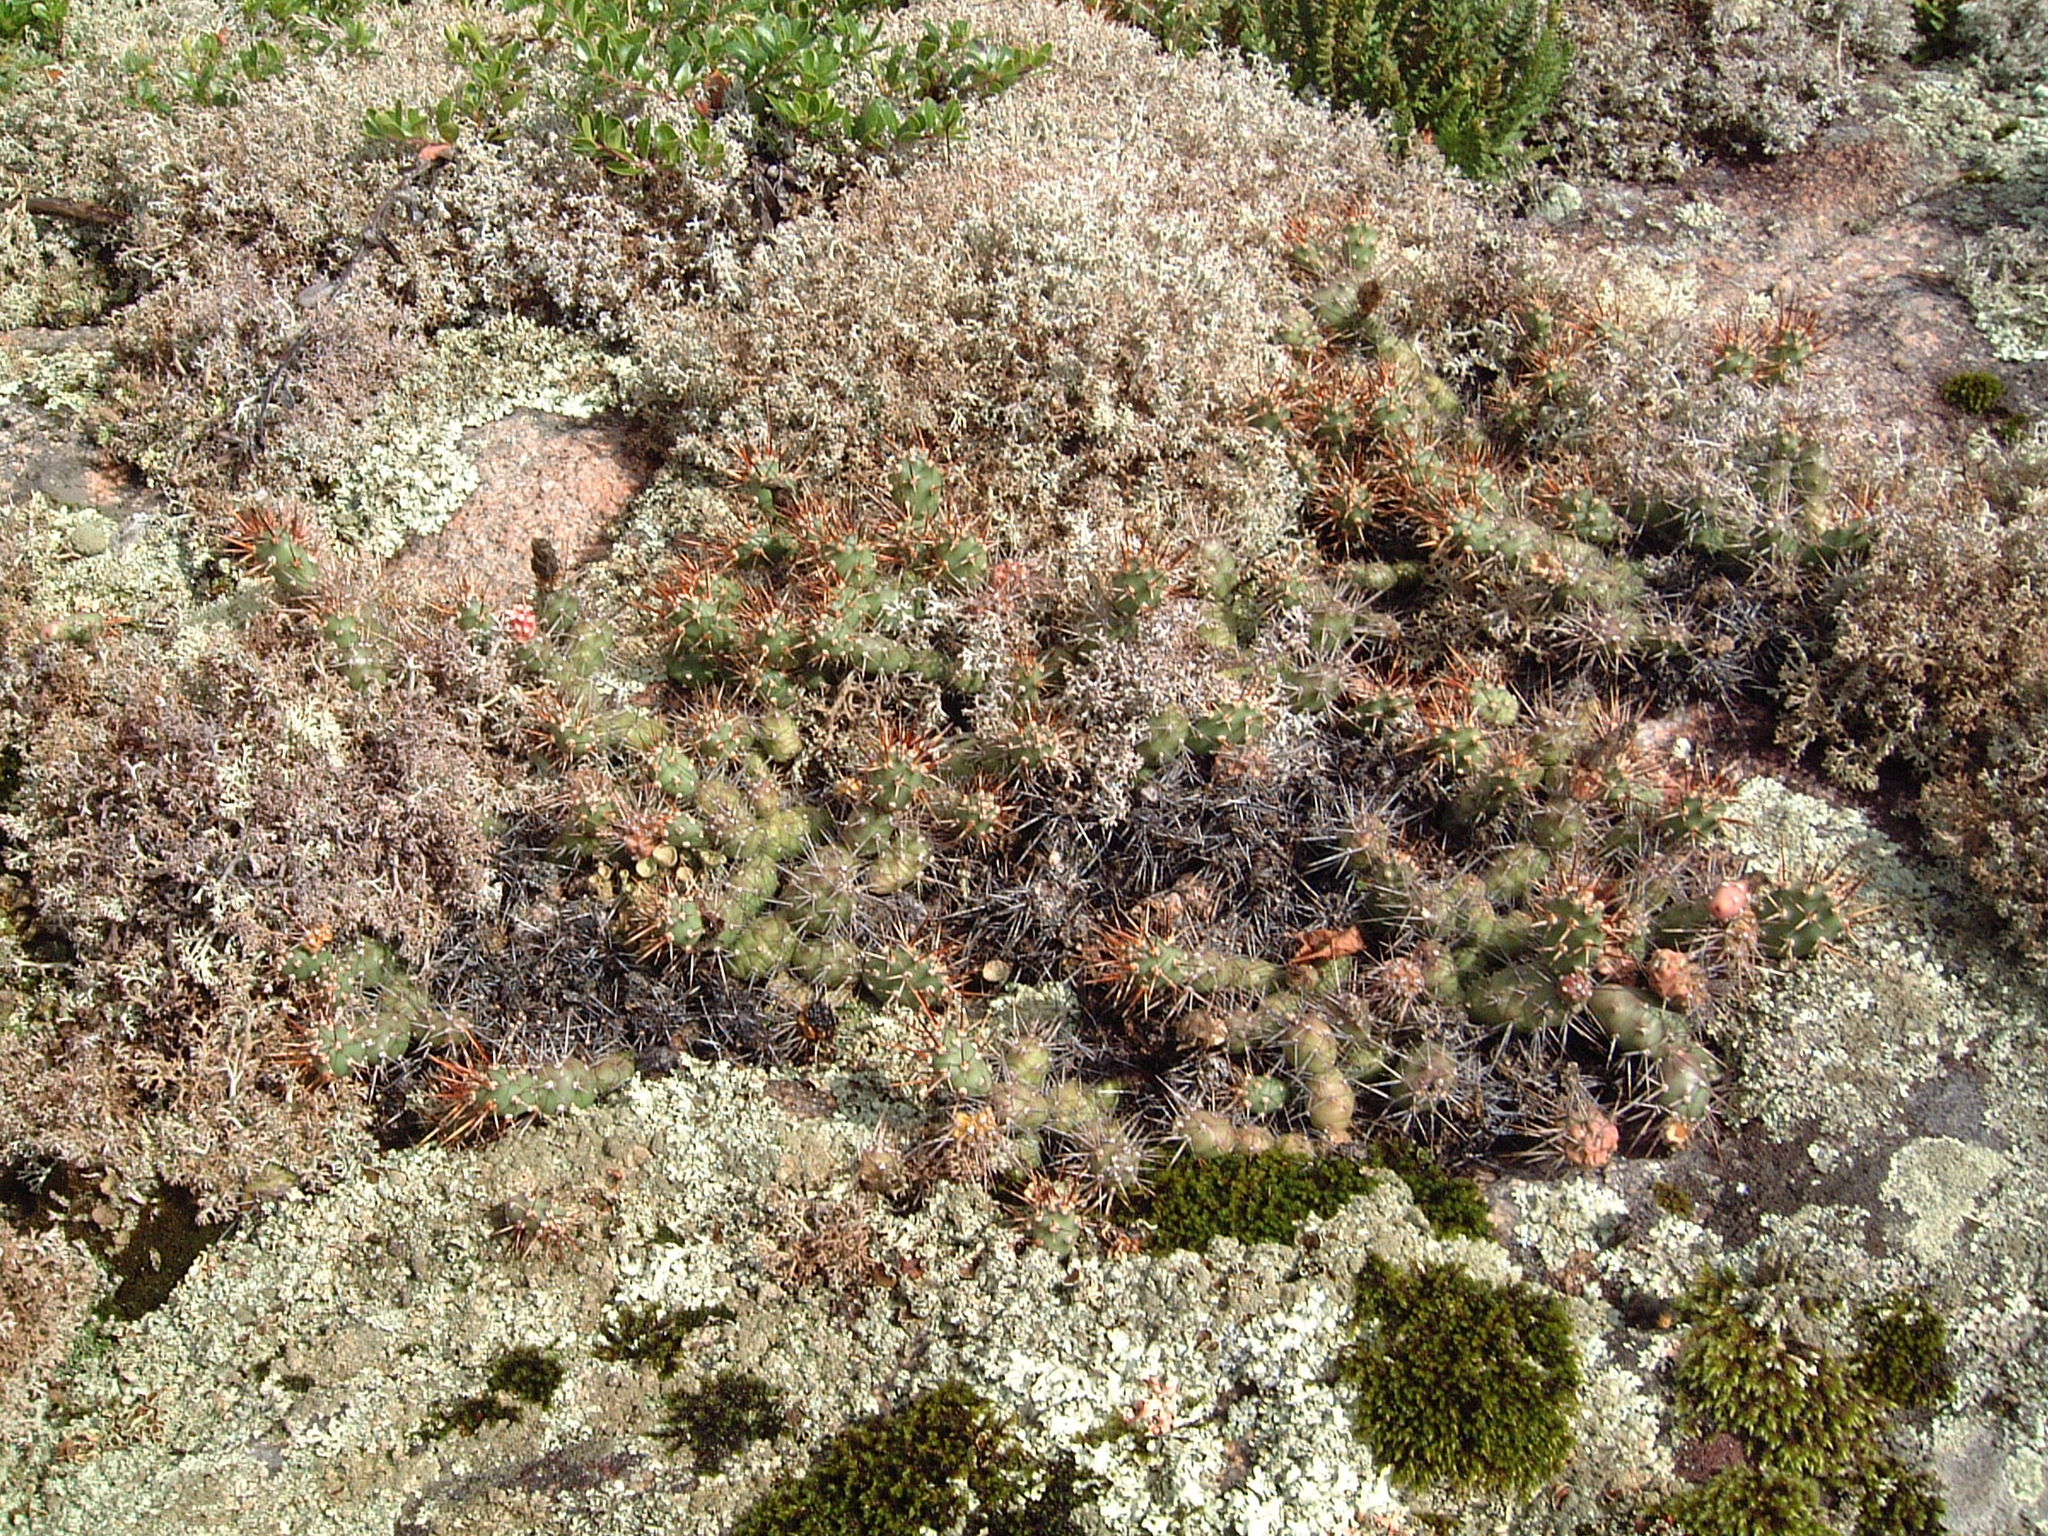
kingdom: Plantae
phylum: Tracheophyta
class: Magnoliopsida
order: Caryophyllales
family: Cactaceae
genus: Opuntia
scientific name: Opuntia fragilis
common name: Brittle cactus
